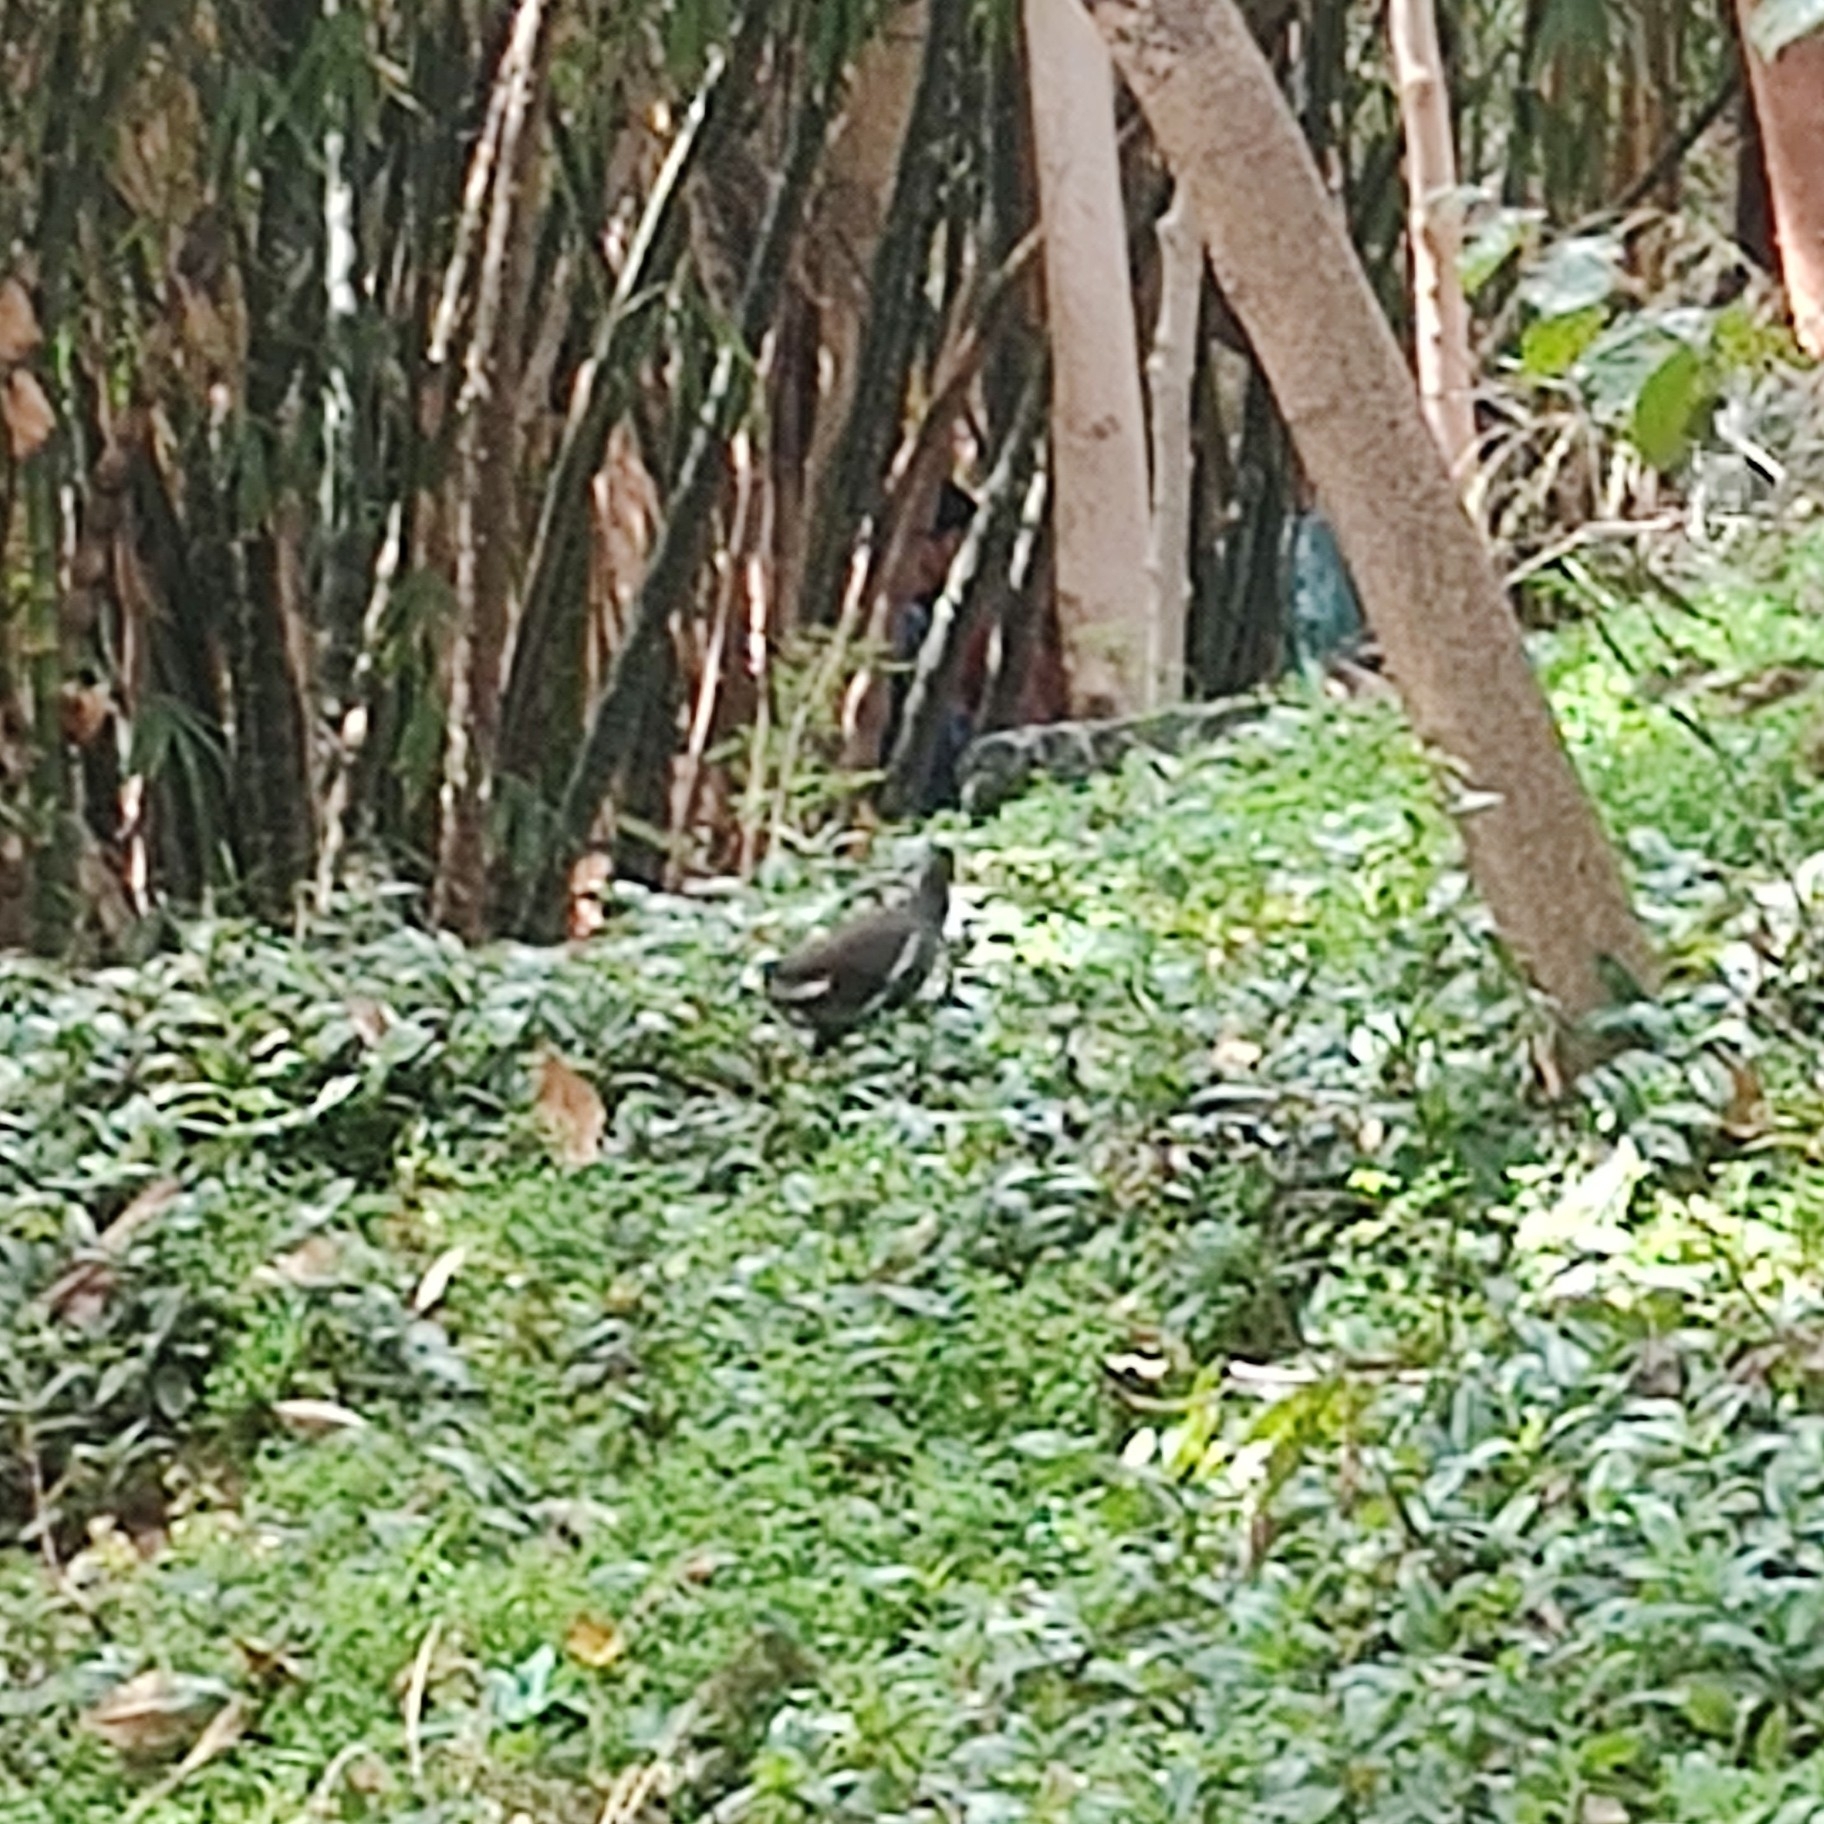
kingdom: Animalia
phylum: Chordata
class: Aves
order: Gruiformes
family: Rallidae
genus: Gallinula
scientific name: Gallinula chloropus
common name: Common moorhen
